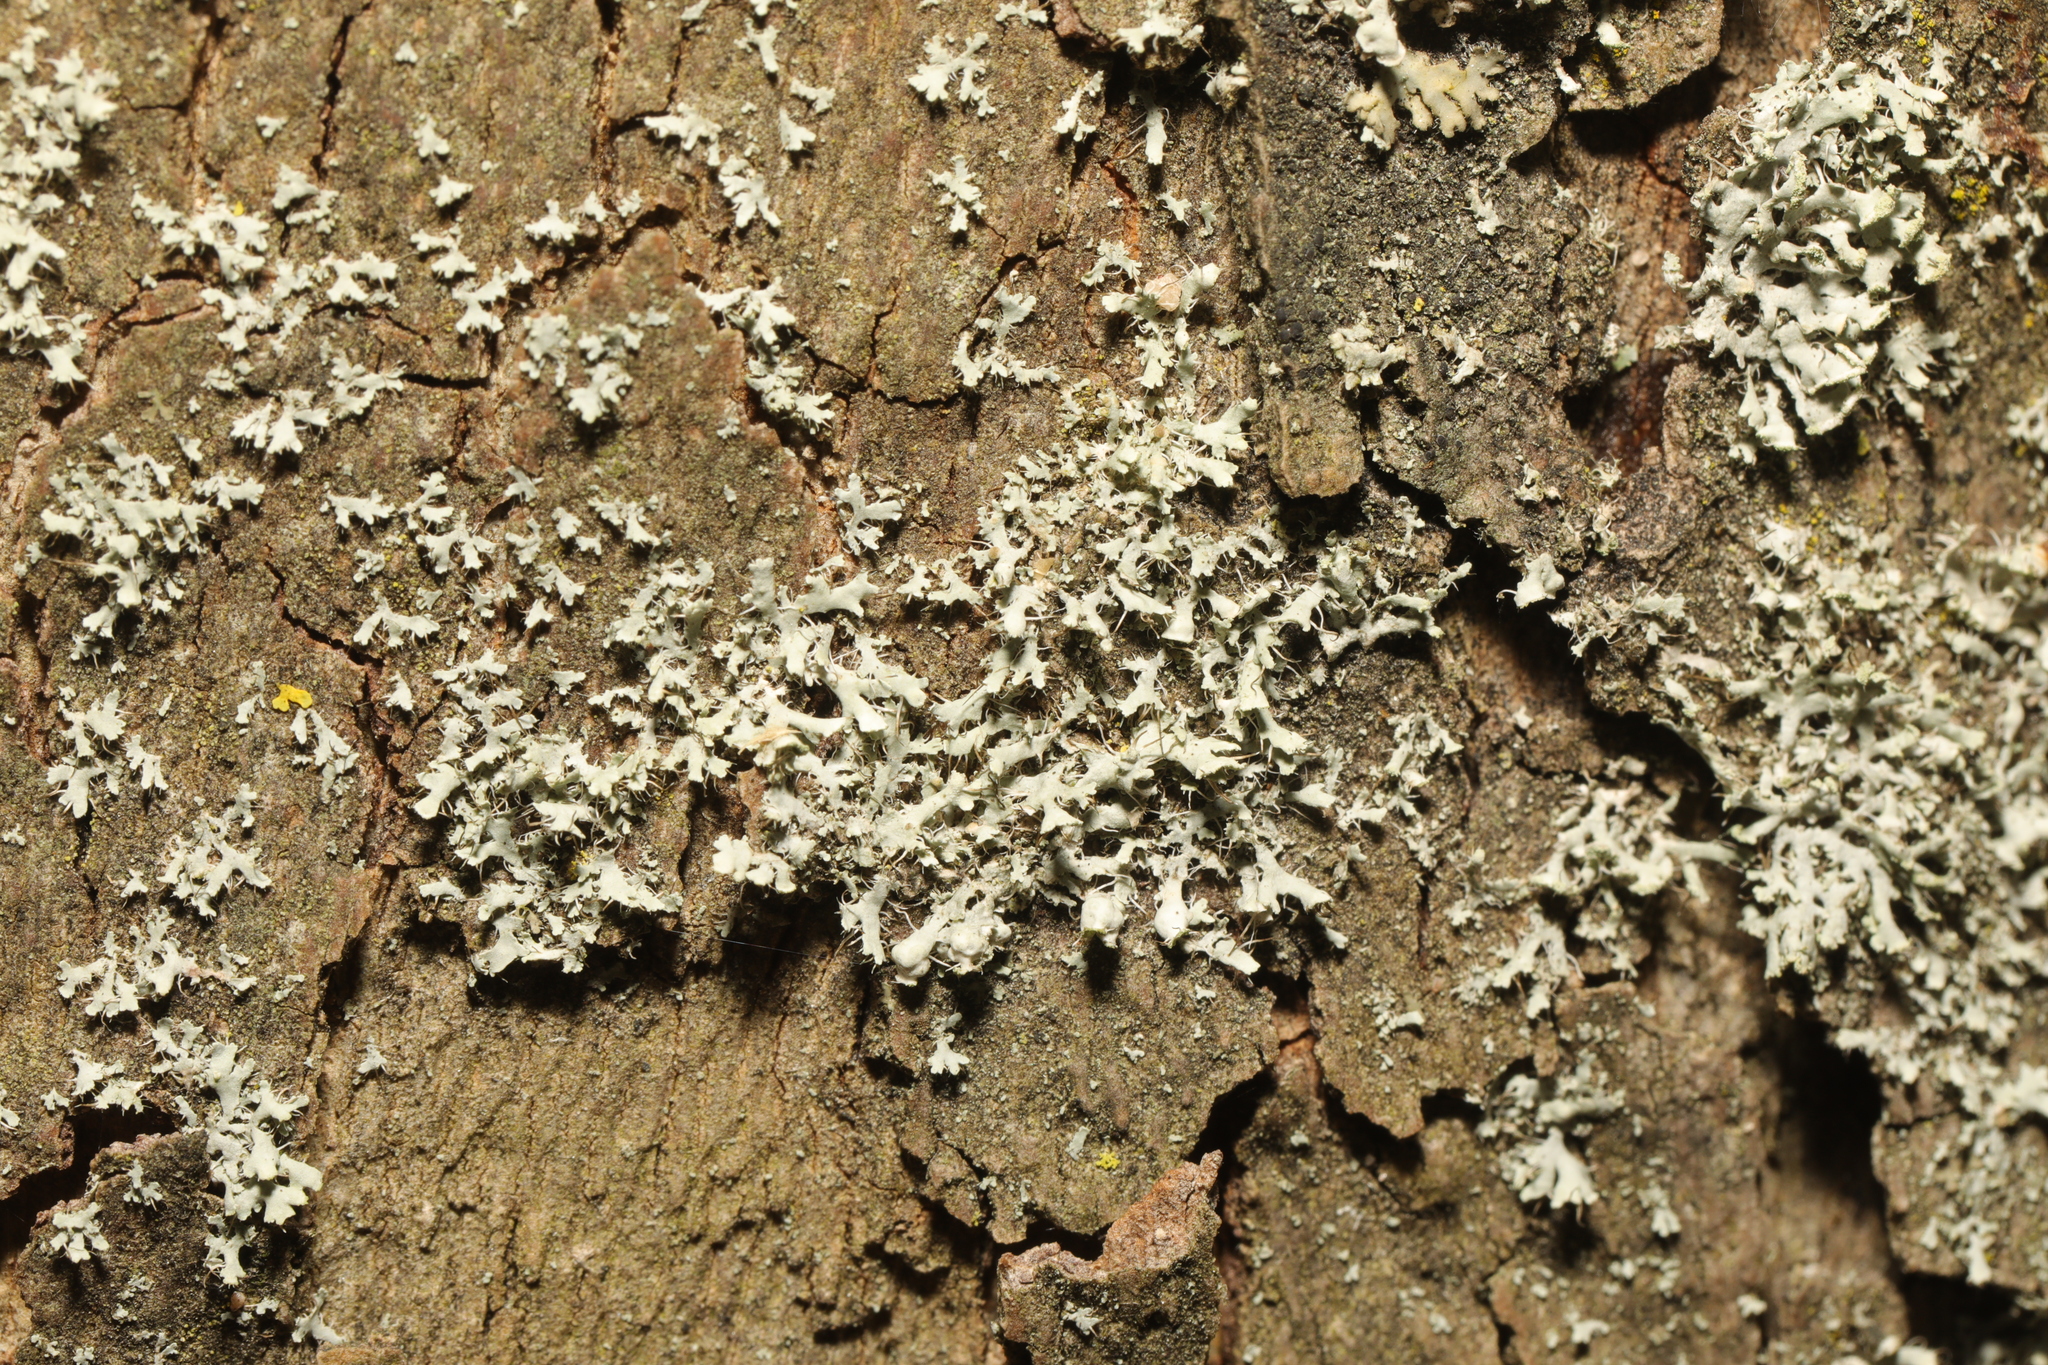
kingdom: Fungi
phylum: Ascomycota
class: Lecanoromycetes
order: Caliciales
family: Physciaceae
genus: Physcia
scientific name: Physcia adscendens
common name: Hooded rosette lichen
